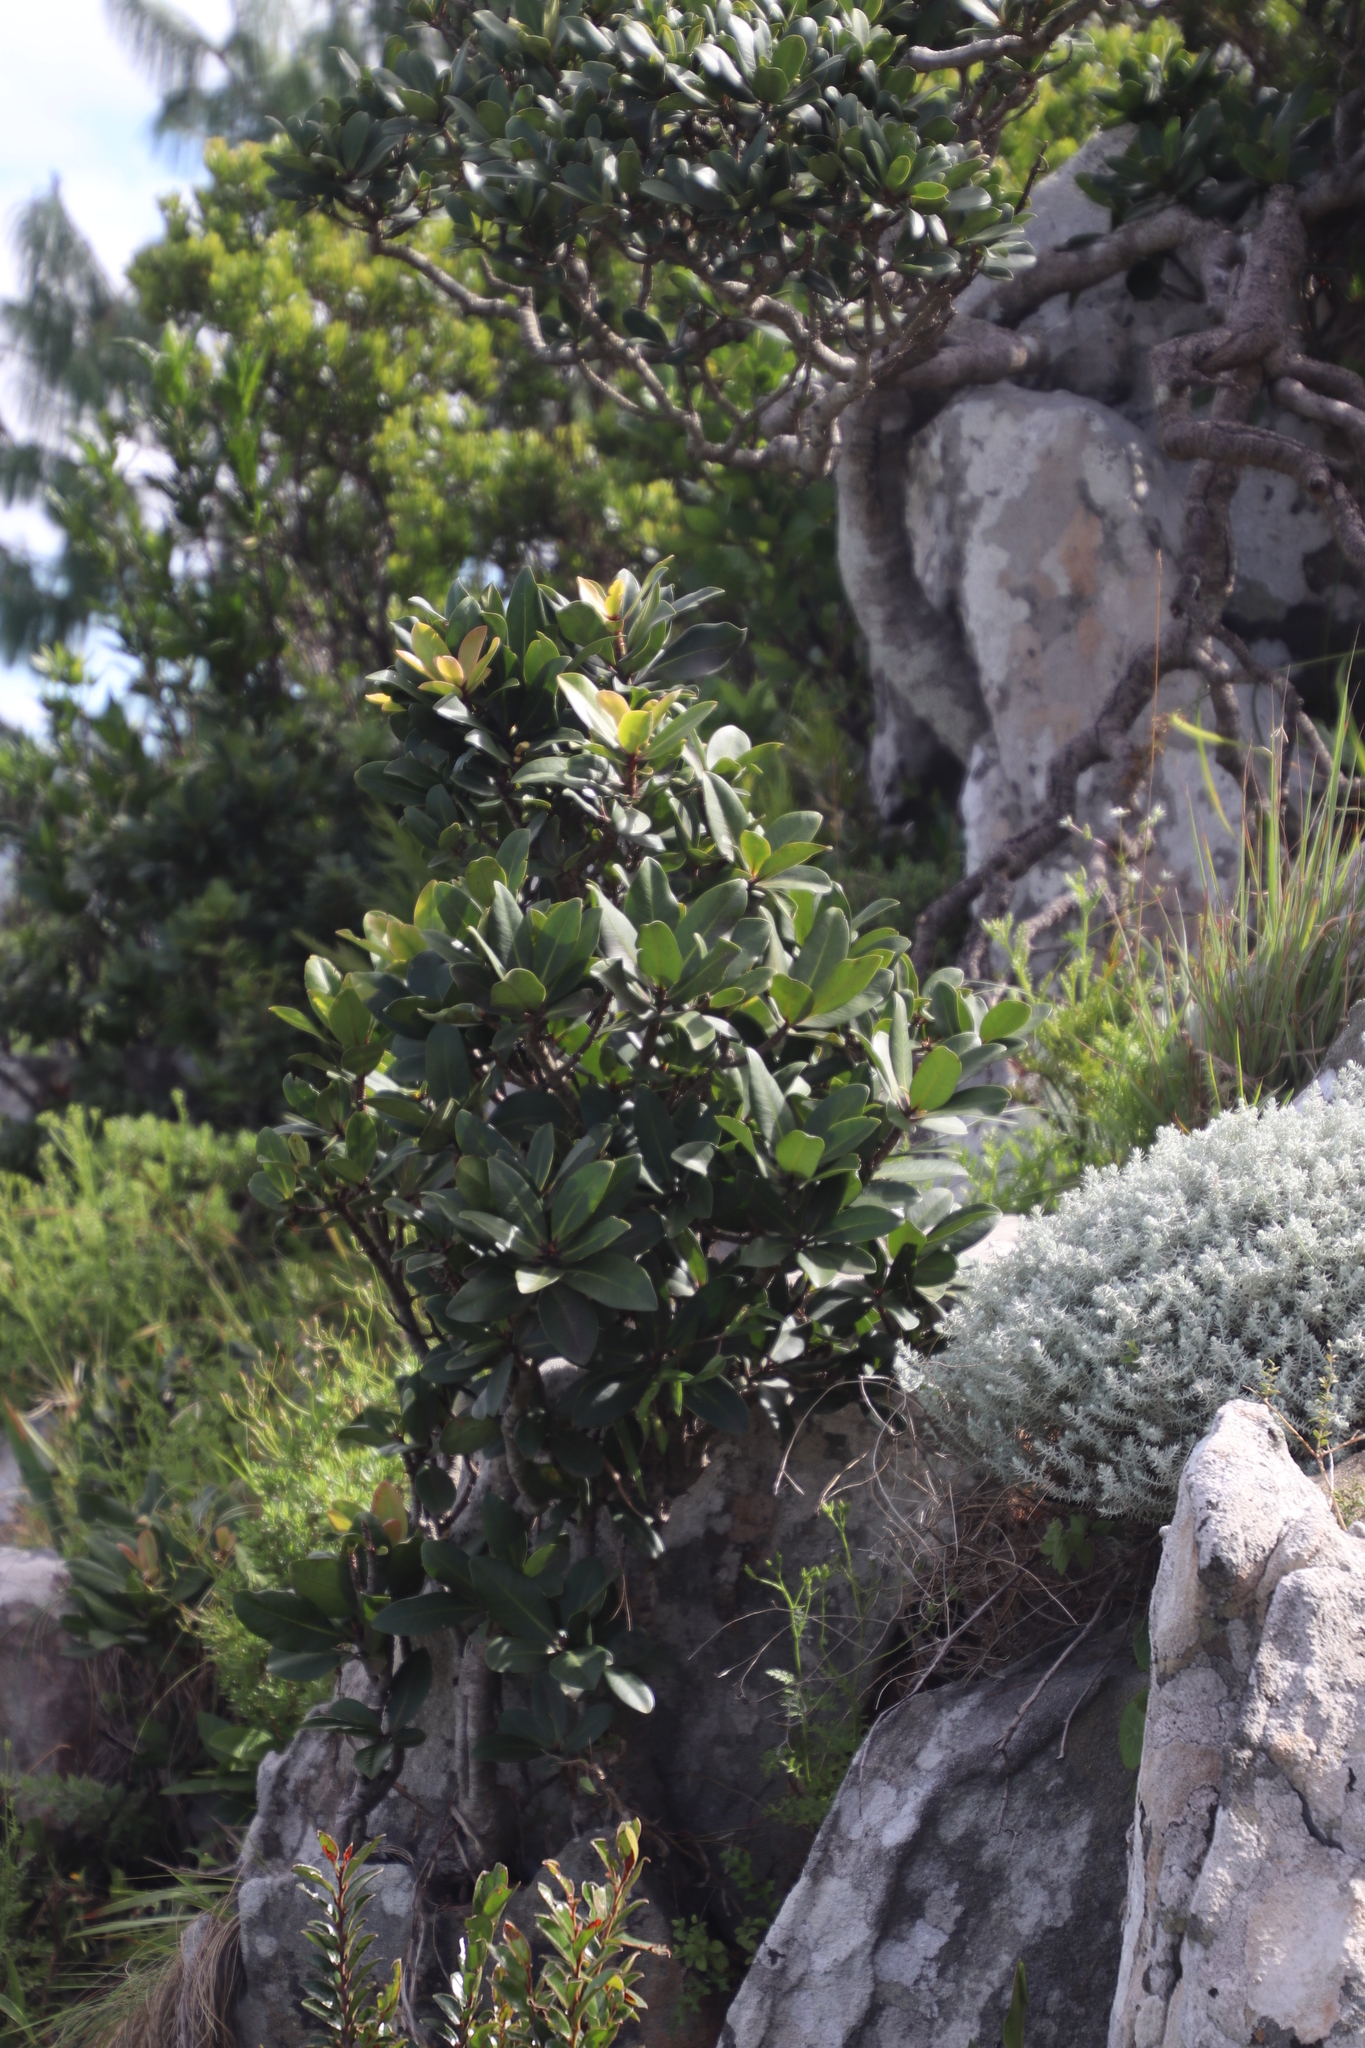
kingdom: Plantae
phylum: Tracheophyta
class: Magnoliopsida
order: Ericales
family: Primulaceae
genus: Myrsine
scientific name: Myrsine melanophloeos
